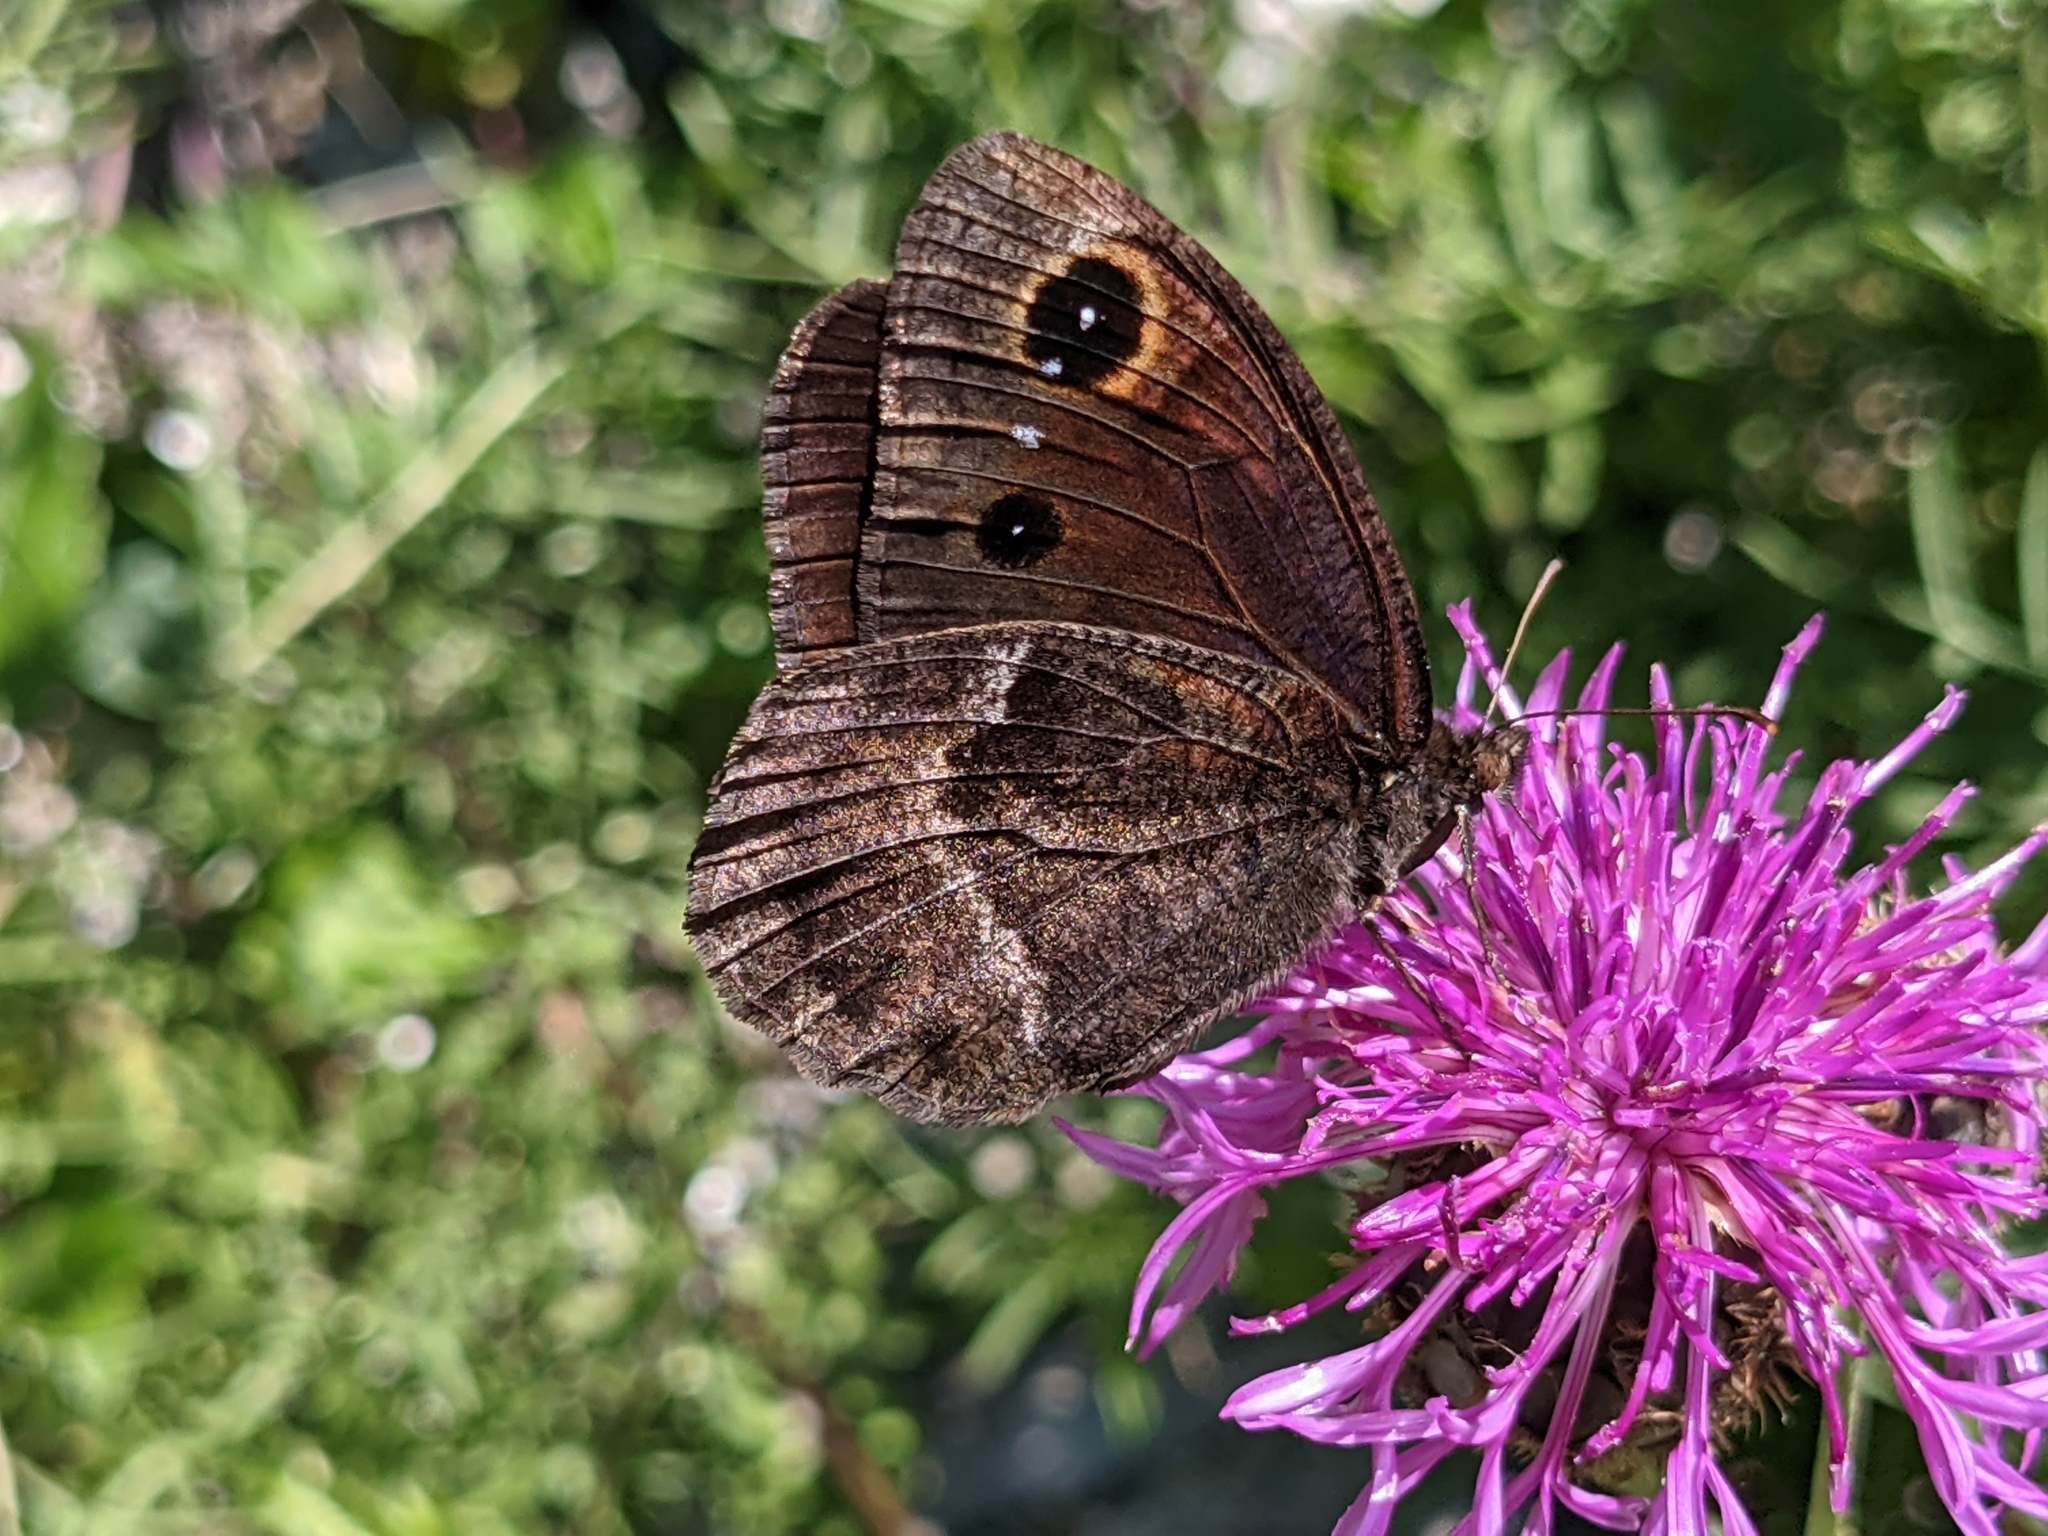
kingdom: Animalia
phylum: Arthropoda
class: Insecta
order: Lepidoptera
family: Nymphalidae
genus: Satyrus
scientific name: Satyrus ferula
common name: Great sooty satyr
